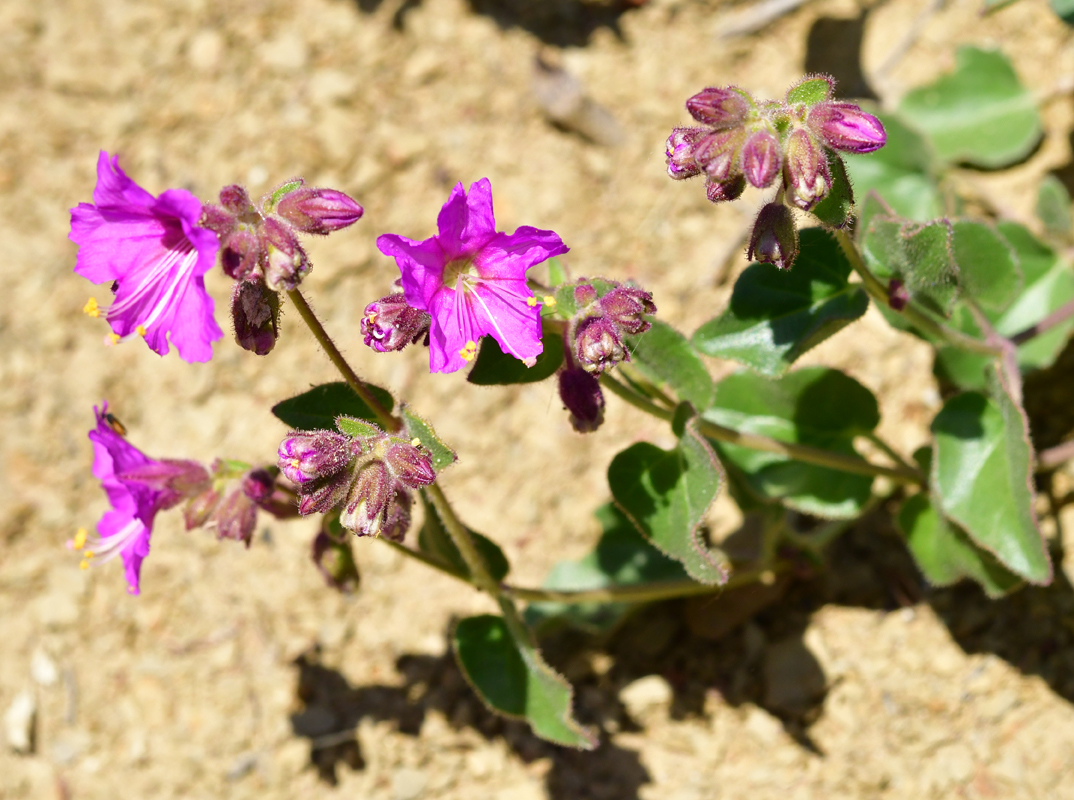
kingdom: Plantae
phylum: Tracheophyta
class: Magnoliopsida
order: Caryophyllales
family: Nyctaginaceae
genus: Mirabilis
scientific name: Mirabilis laevis
